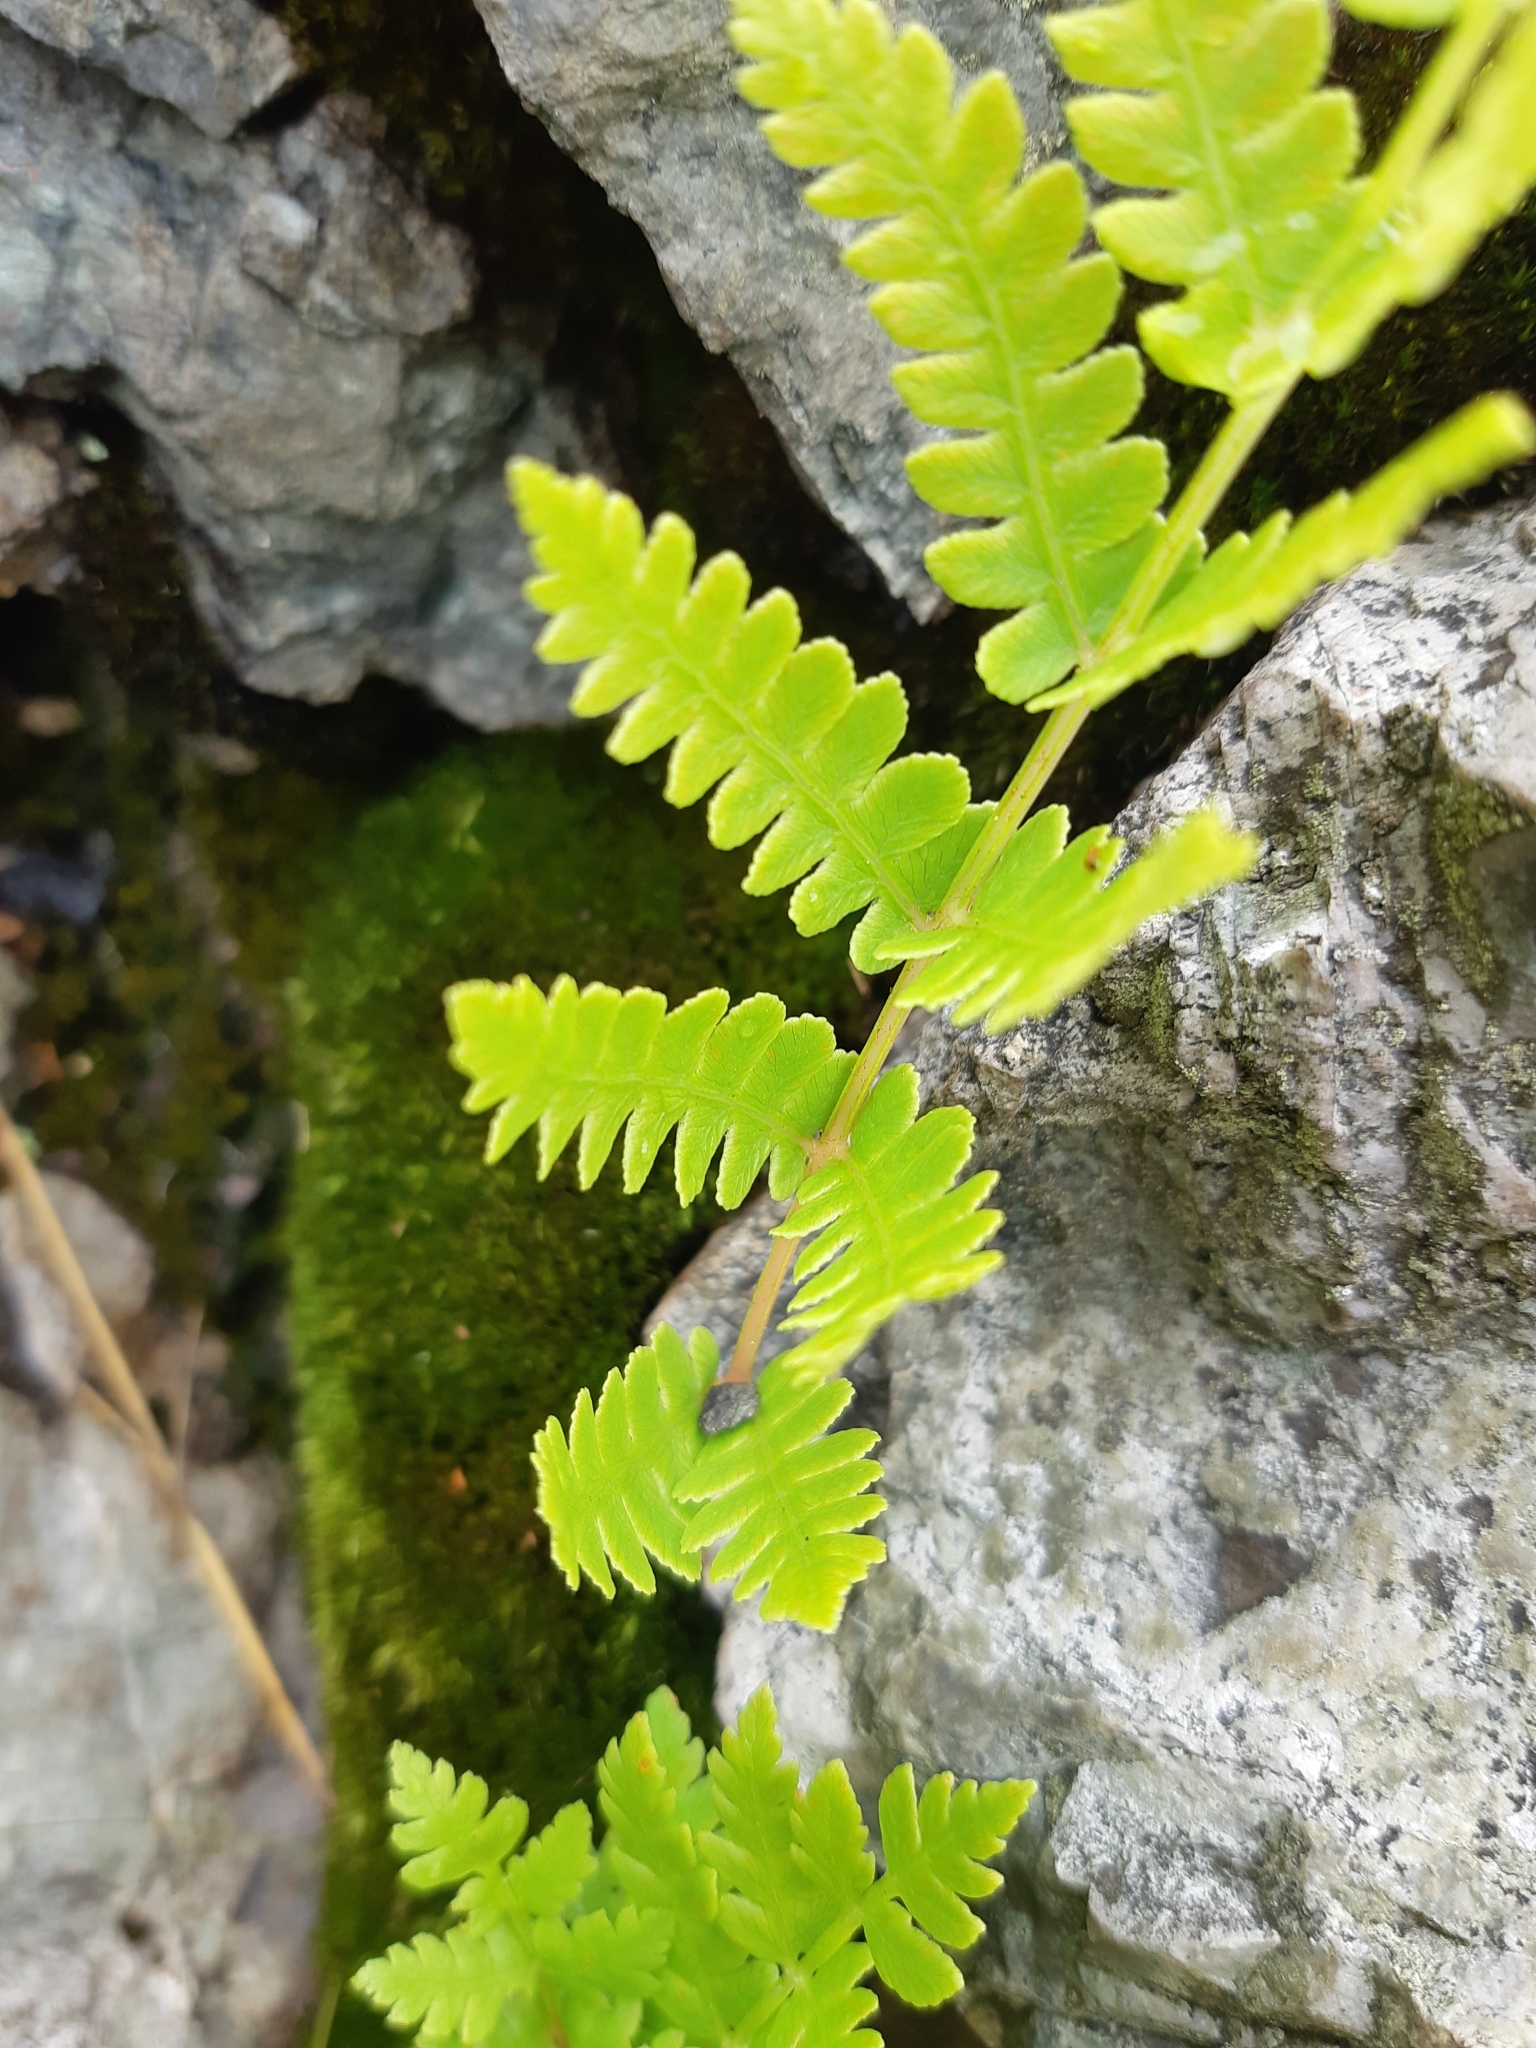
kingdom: Plantae
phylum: Tracheophyta
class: Polypodiopsida
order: Polypodiales
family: Dryopteridaceae
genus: Dryopteris
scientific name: Dryopteris cristata
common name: Crested wood fern
